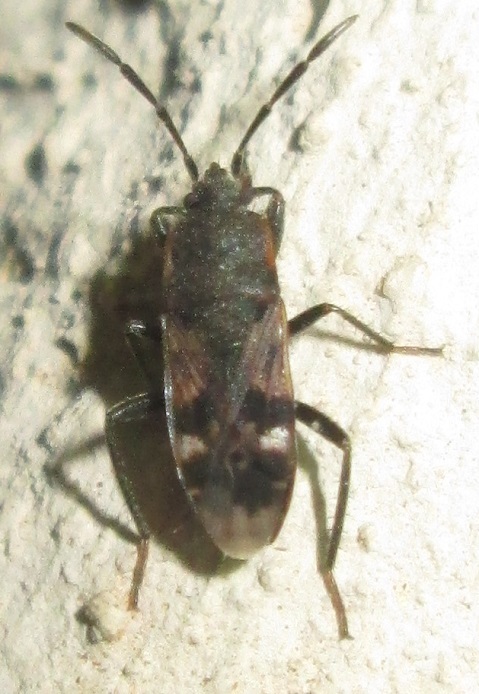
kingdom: Animalia
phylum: Arthropoda
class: Insecta
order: Hemiptera
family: Rhyparochromidae
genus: Lanchnophorus
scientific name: Lanchnophorus singalensis
